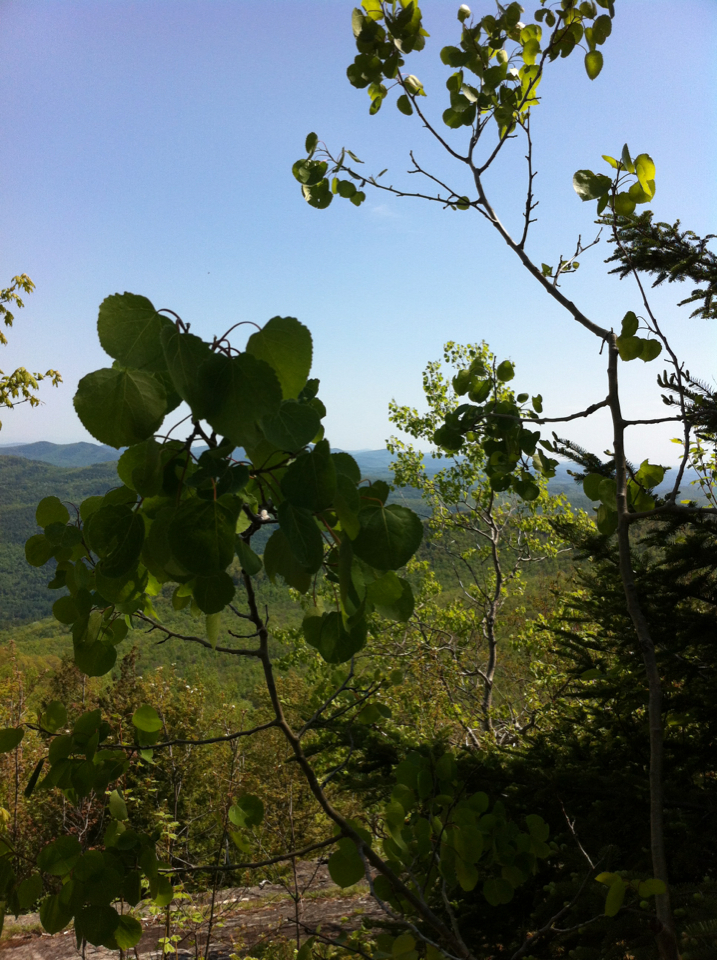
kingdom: Plantae
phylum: Tracheophyta
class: Magnoliopsida
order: Malpighiales
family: Salicaceae
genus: Populus
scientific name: Populus tremuloides
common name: Quaking aspen
